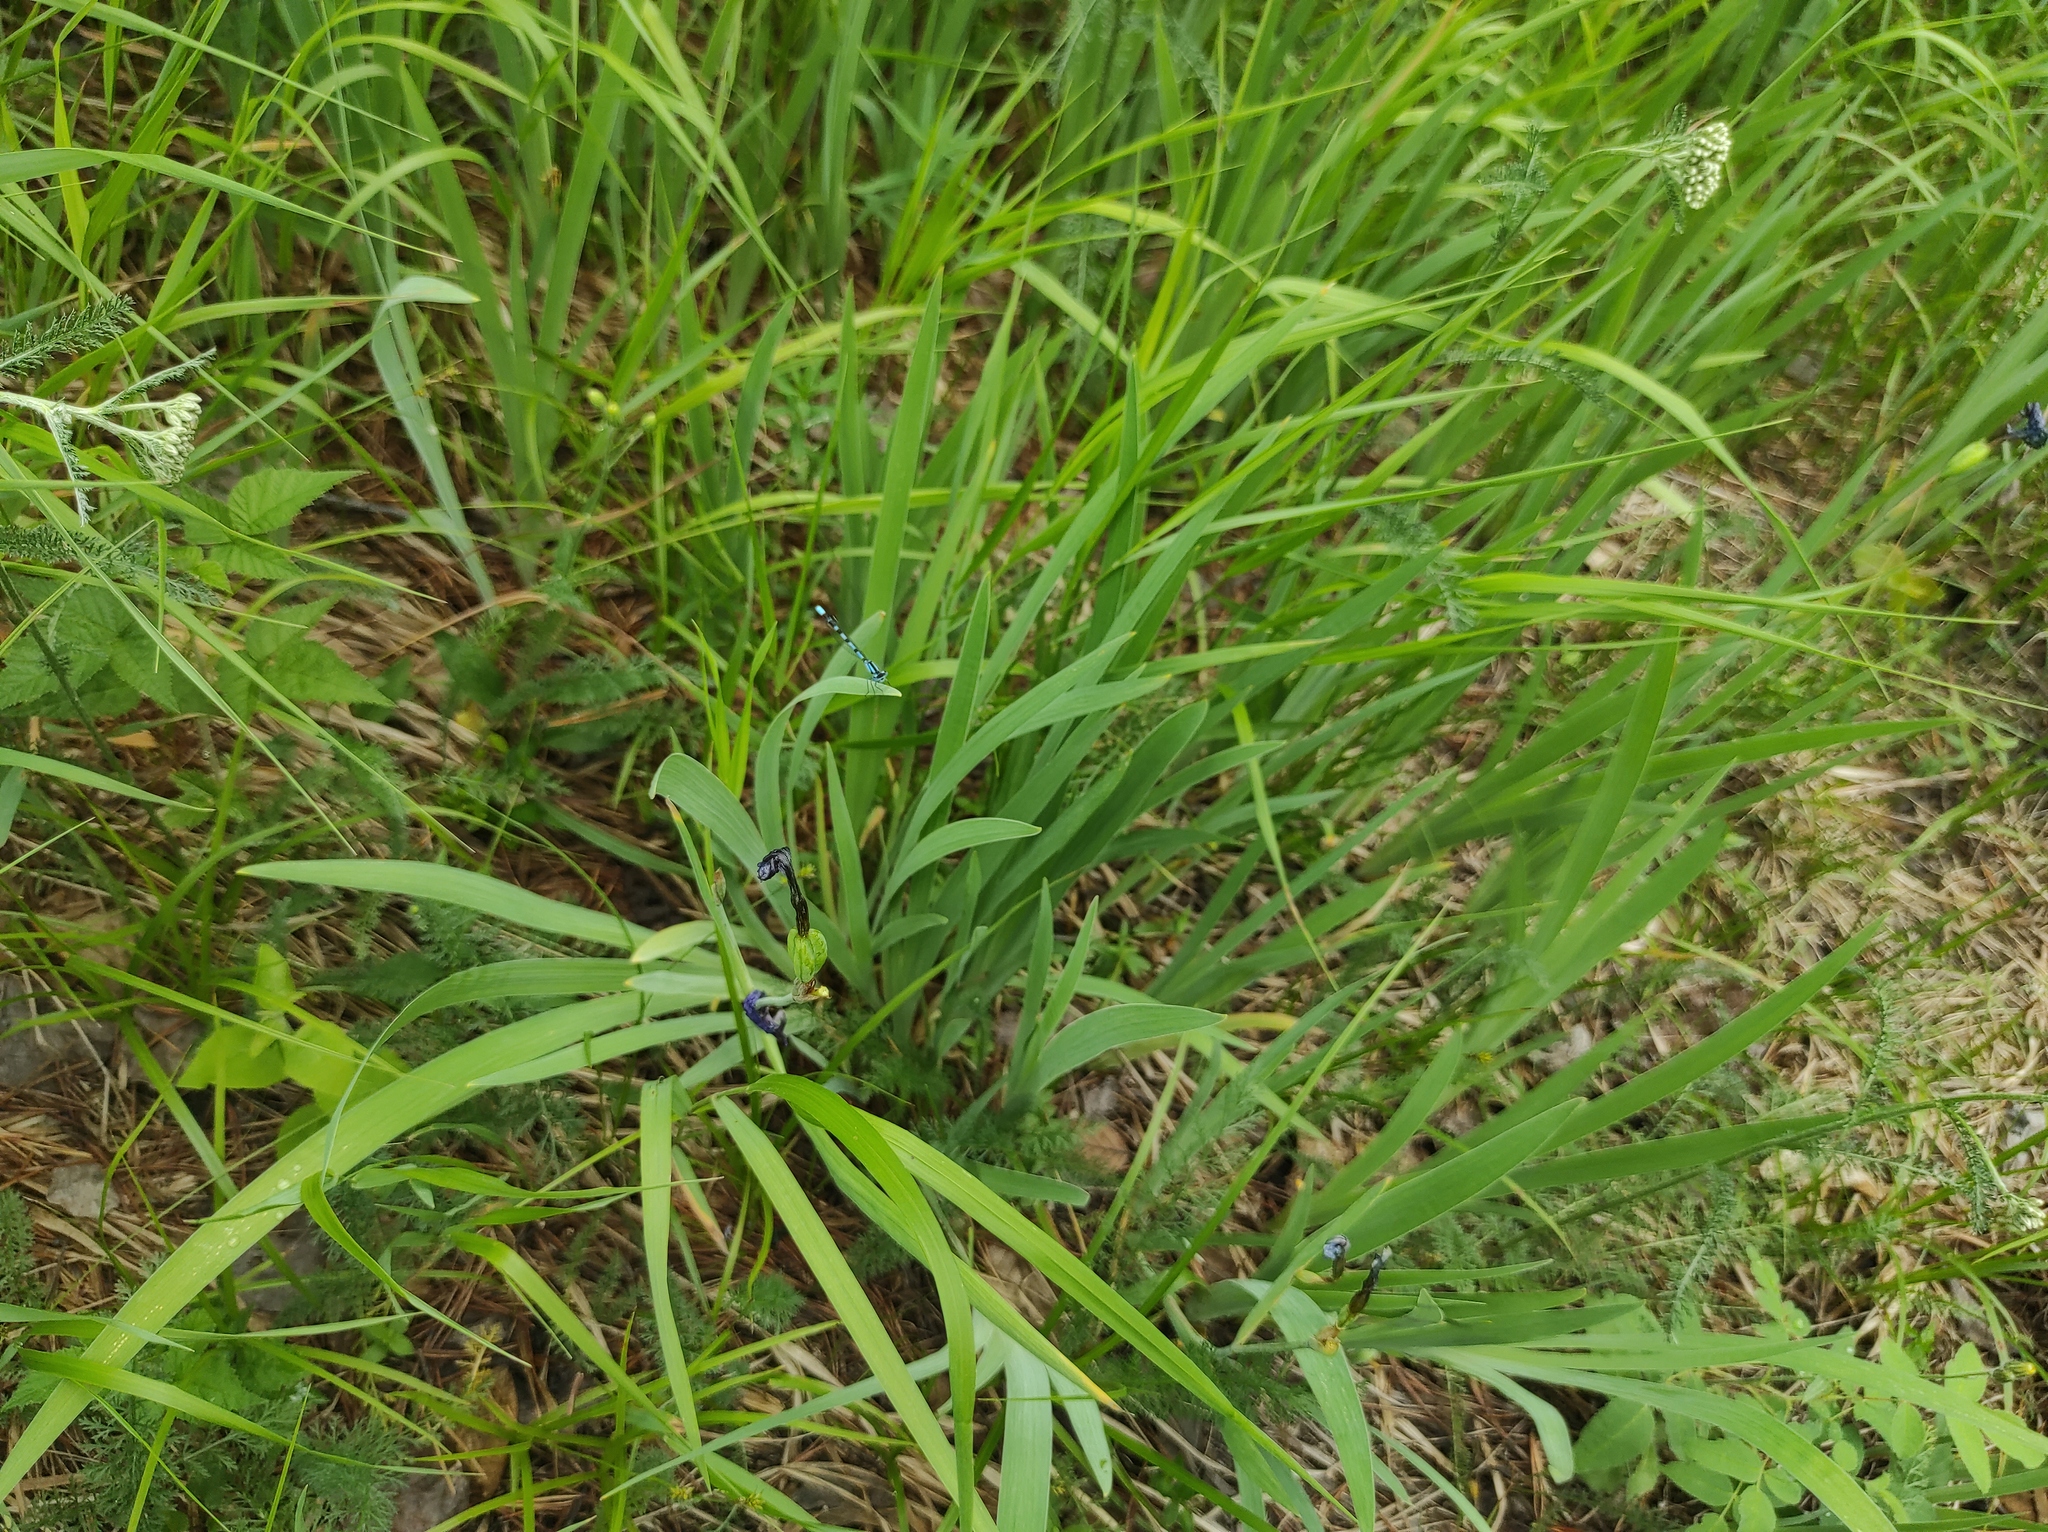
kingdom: Plantae
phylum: Tracheophyta
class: Liliopsida
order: Asparagales
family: Iridaceae
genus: Iris
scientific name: Iris setosa
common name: Arctic blue flag
